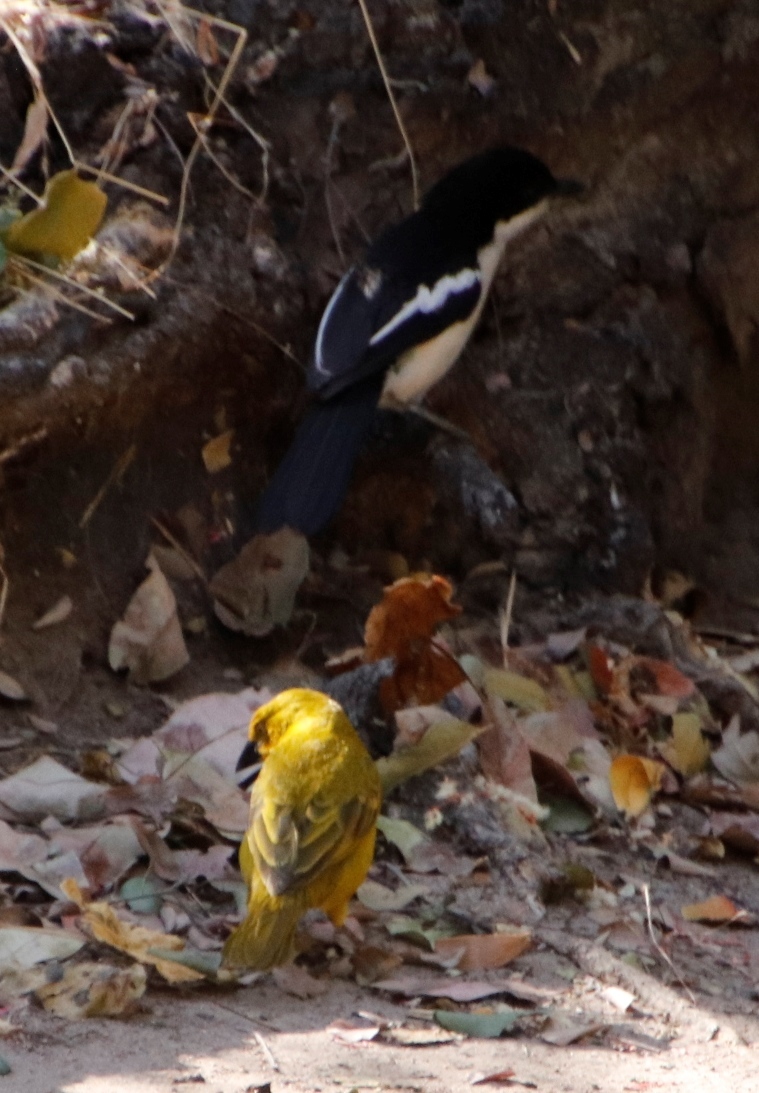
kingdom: Animalia
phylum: Chordata
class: Aves
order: Passeriformes
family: Ploceidae
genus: Ploceus
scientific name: Ploceus xanthops
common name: Holub's golden weaver
